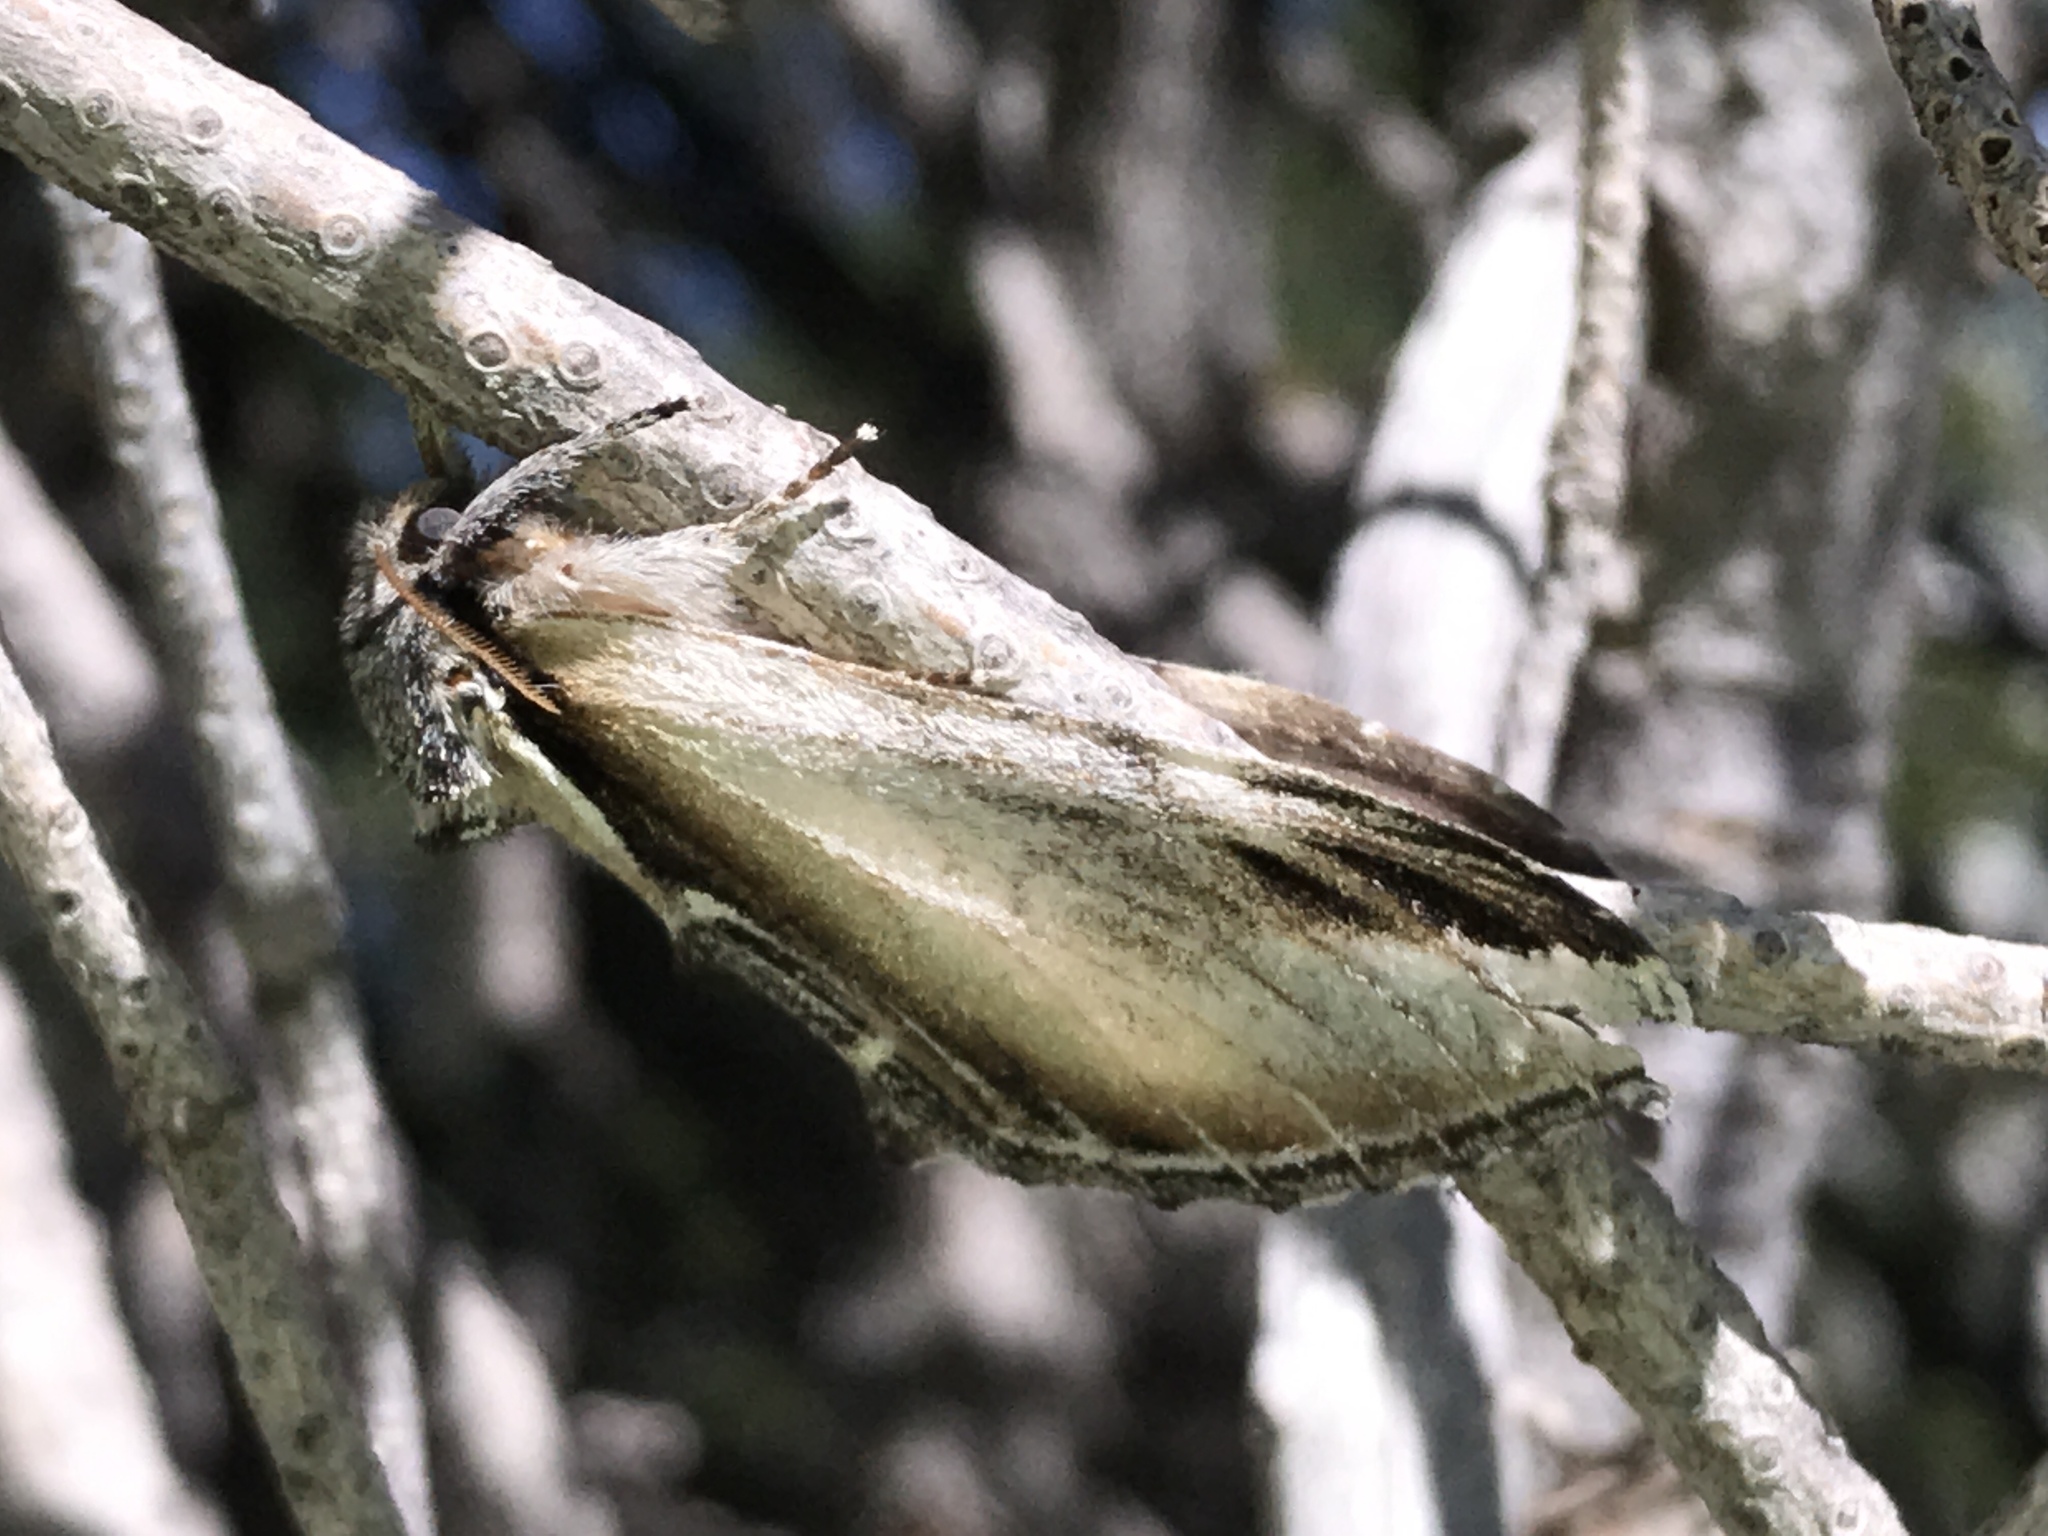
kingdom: Animalia
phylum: Arthropoda
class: Insecta
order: Lepidoptera
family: Notodontidae
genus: Pheosia
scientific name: Pheosia rimosa
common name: Black-rimmed prominent
